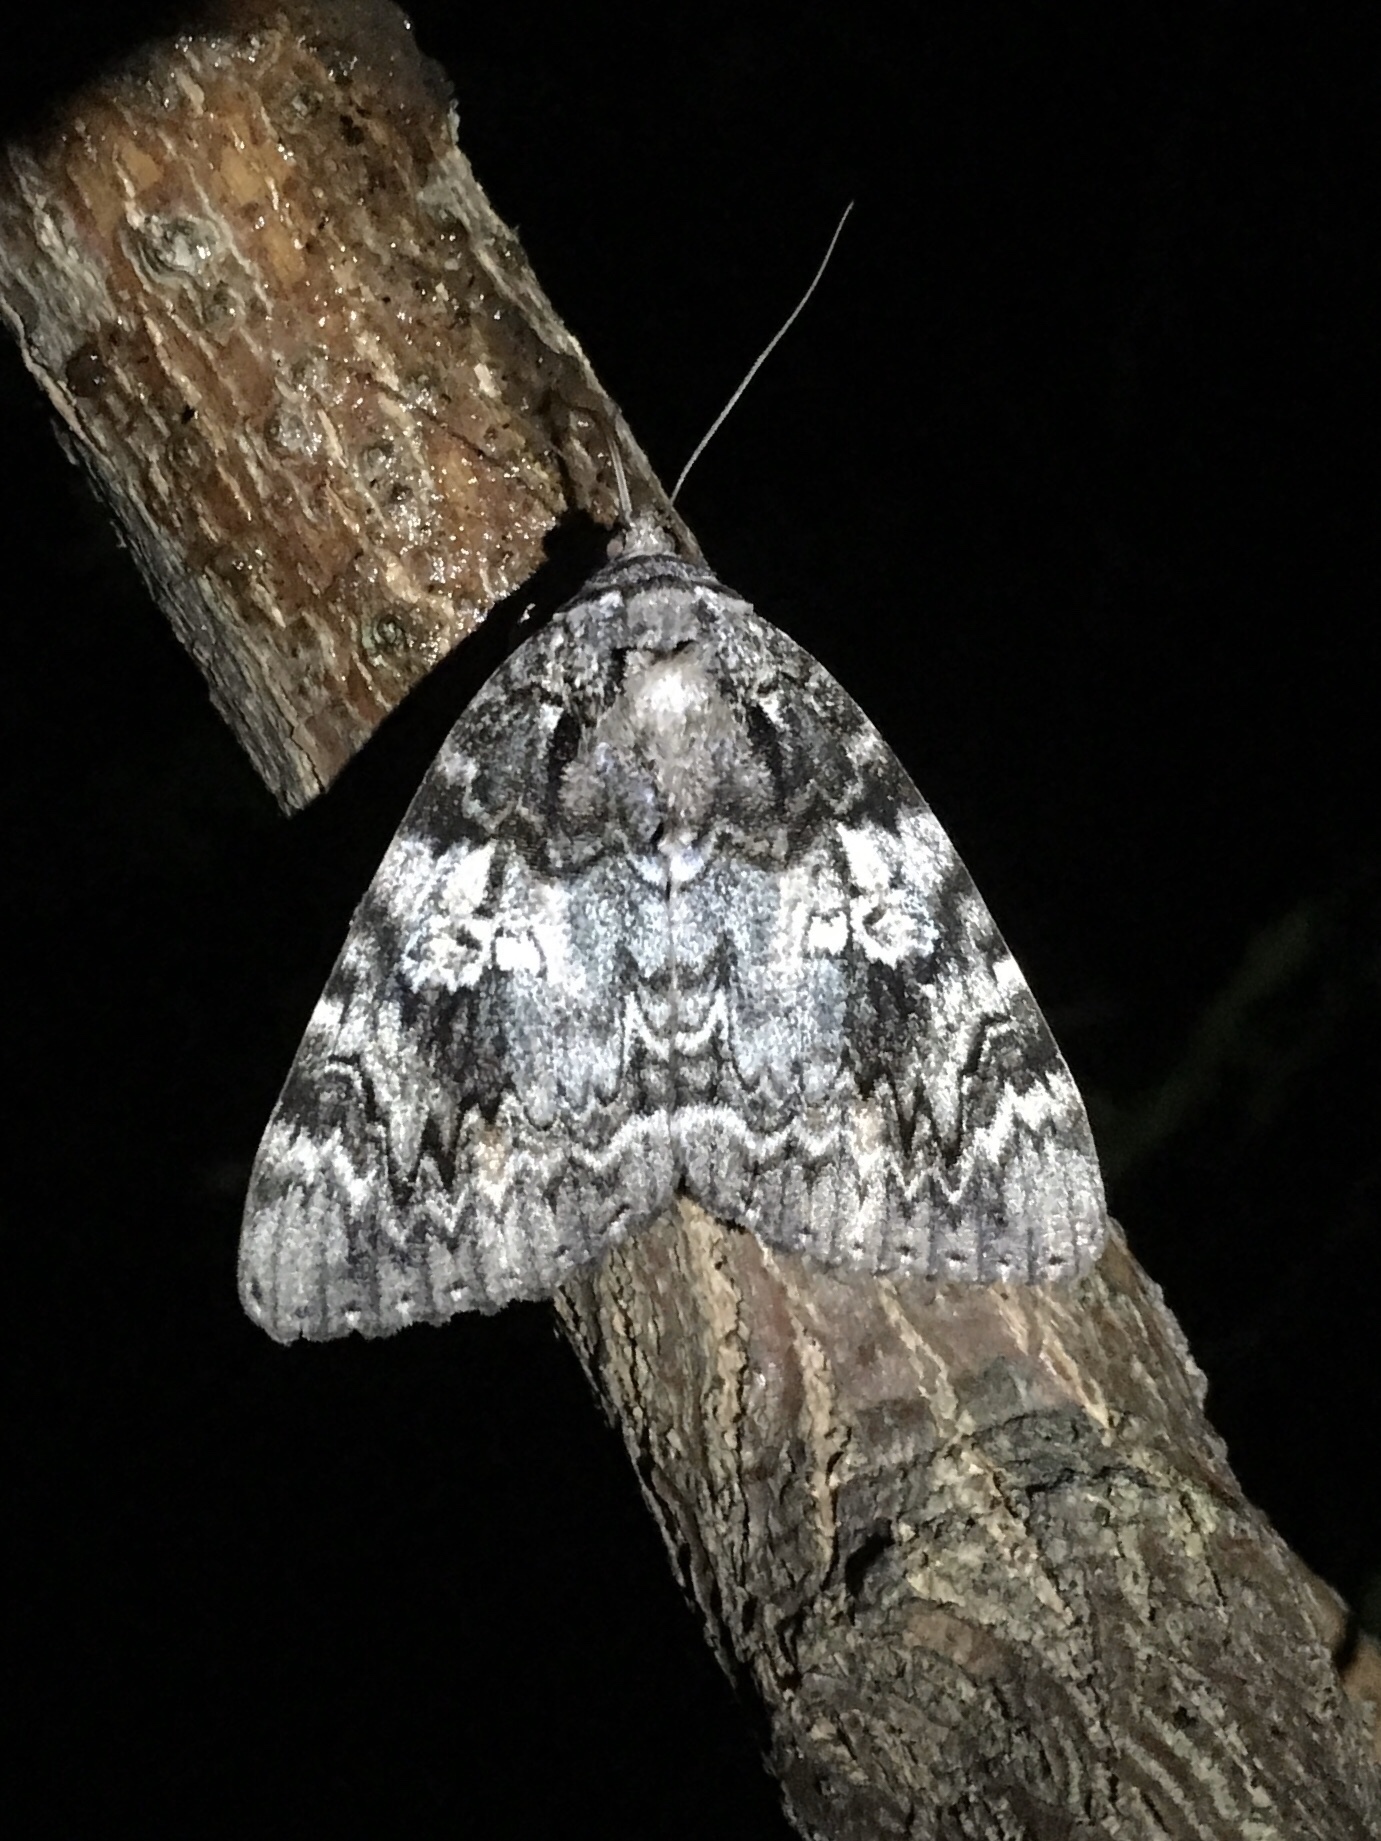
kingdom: Animalia
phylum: Arthropoda
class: Insecta
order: Lepidoptera
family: Erebidae
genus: Catocala
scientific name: Catocala ilia
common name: Ilia underwing
